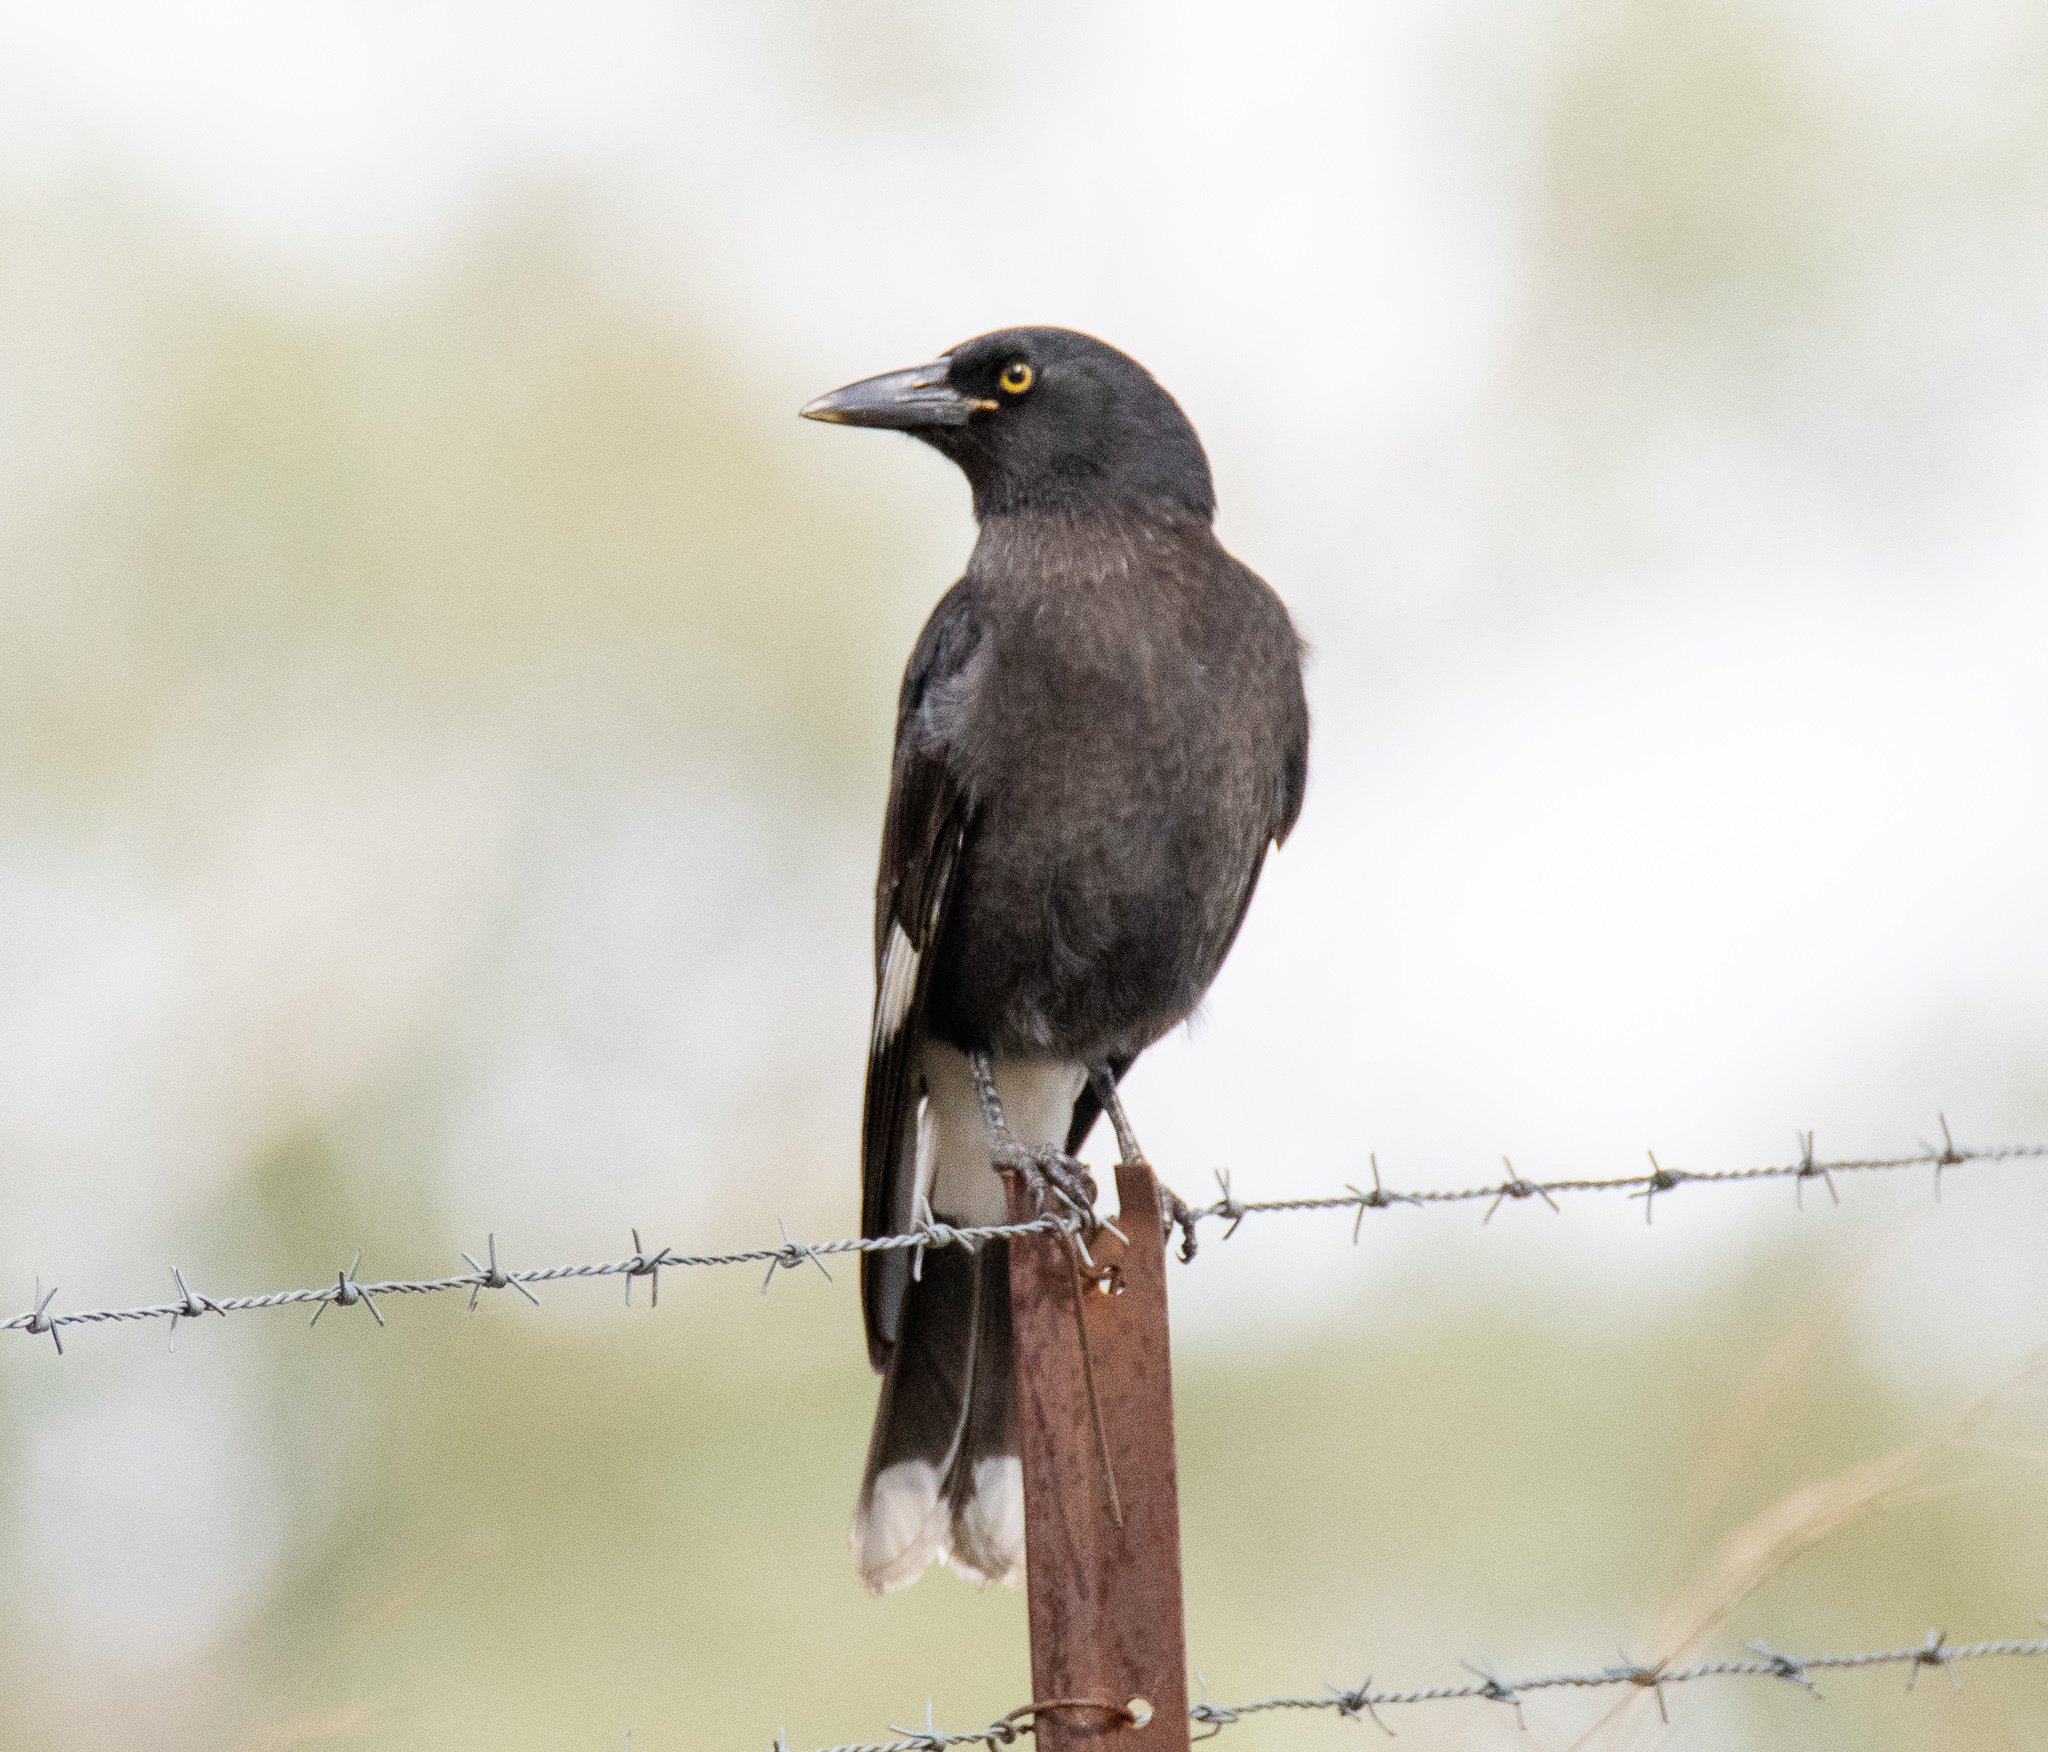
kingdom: Animalia
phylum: Chordata
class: Aves
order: Passeriformes
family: Cracticidae
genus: Strepera
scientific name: Strepera graculina
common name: Pied currawong
